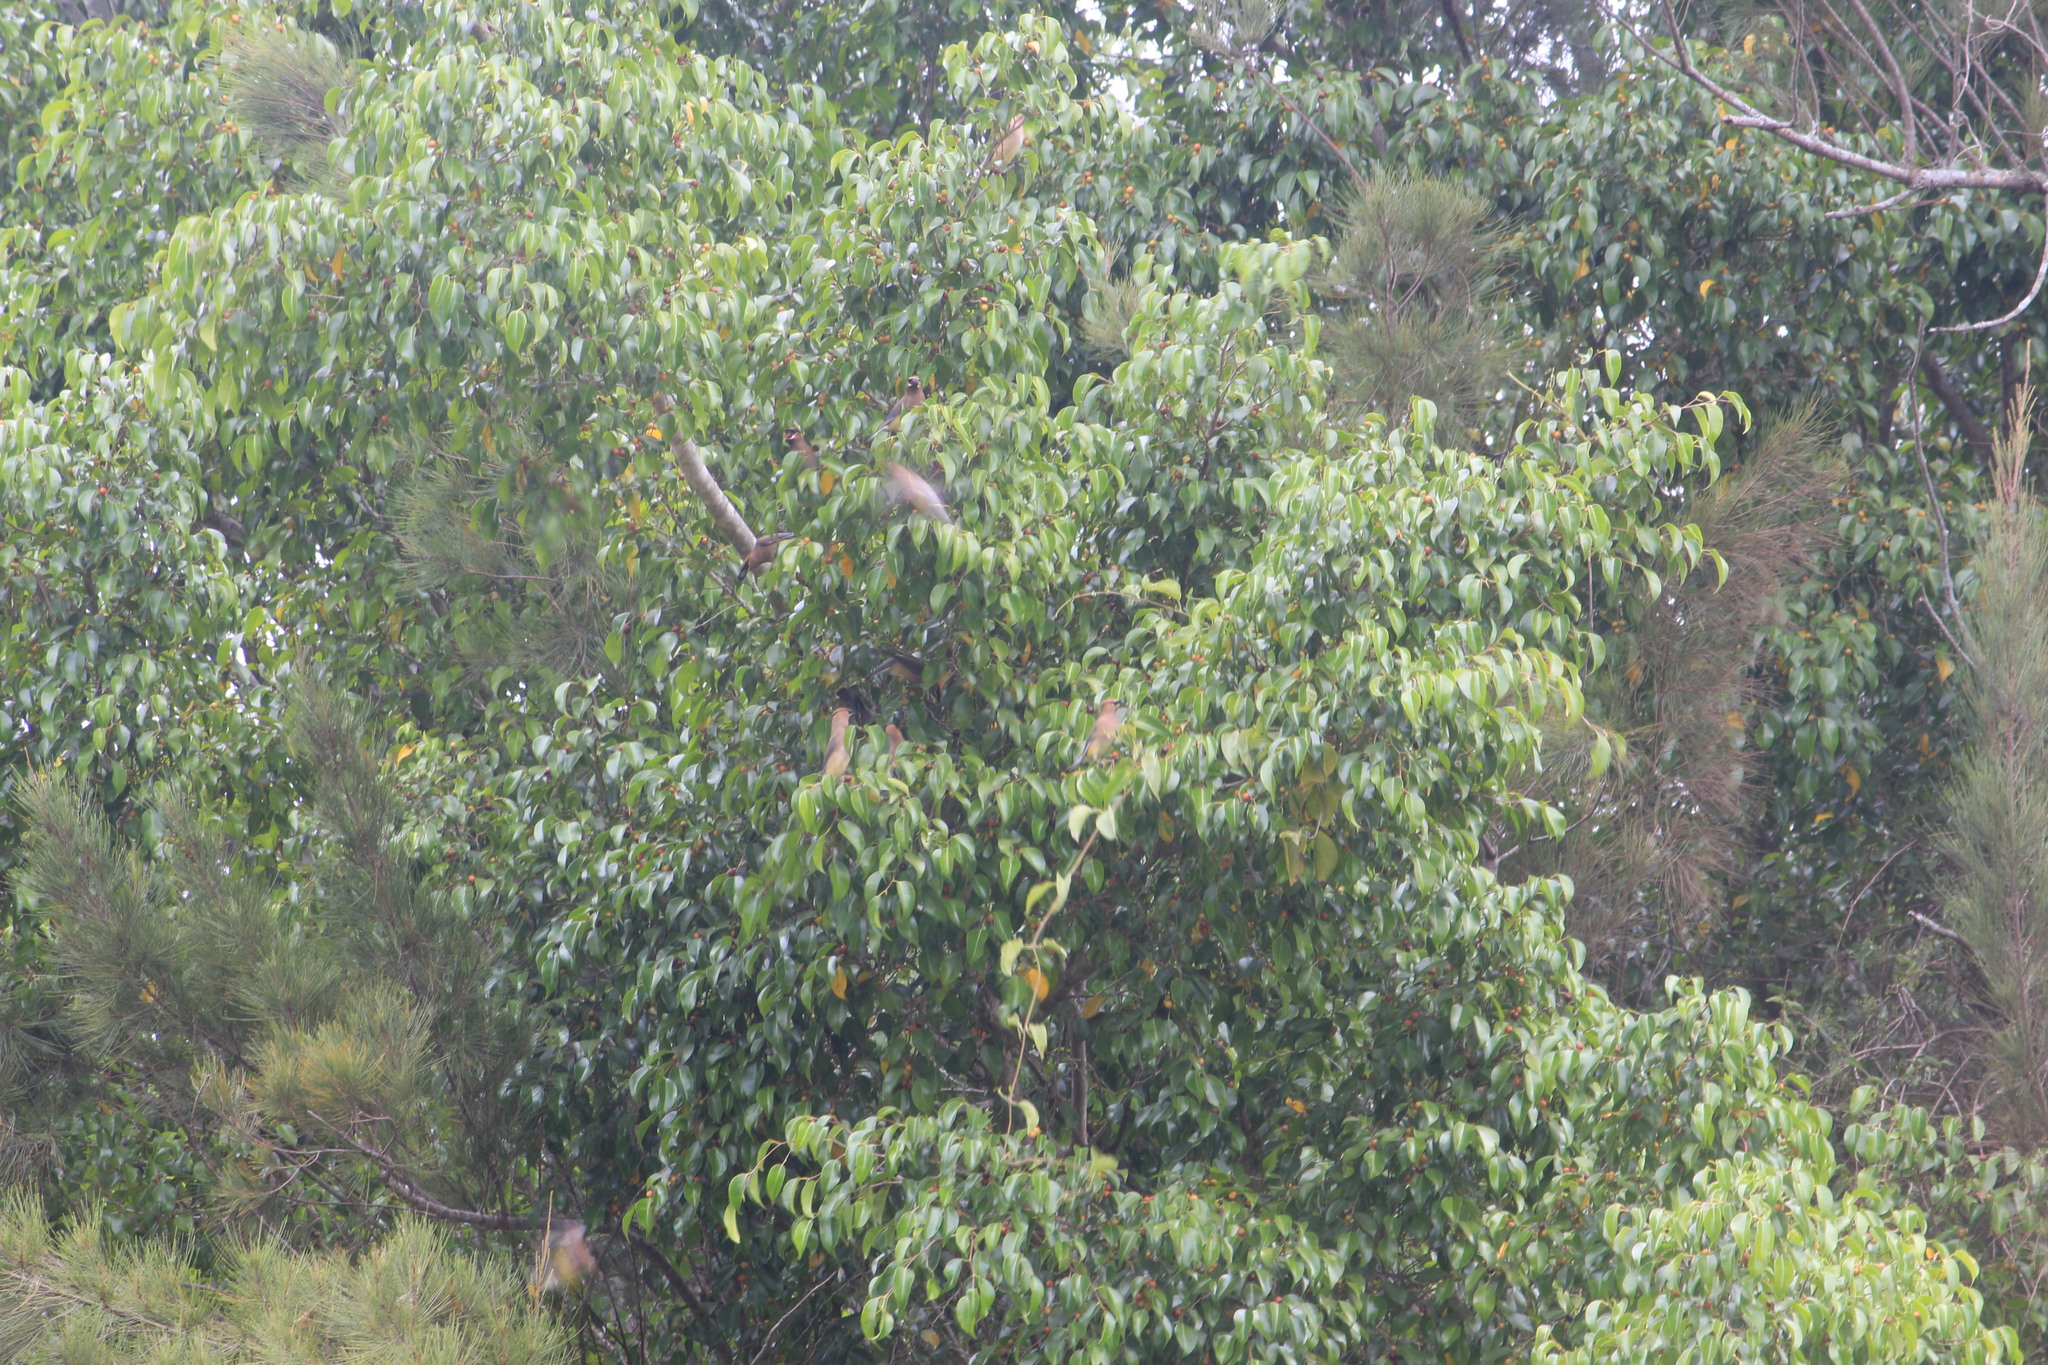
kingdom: Animalia
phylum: Chordata
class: Aves
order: Passeriformes
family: Bombycillidae
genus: Bombycilla
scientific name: Bombycilla cedrorum
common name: Cedar waxwing
